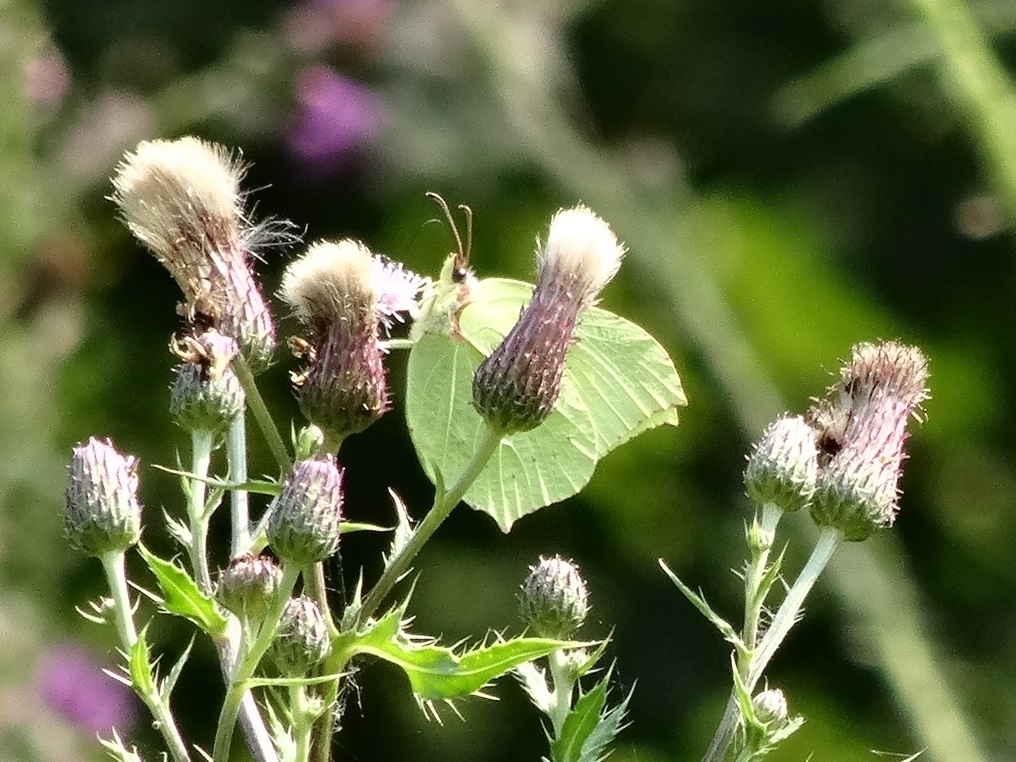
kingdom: Animalia
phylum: Arthropoda
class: Insecta
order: Lepidoptera
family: Pieridae
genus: Gonepteryx
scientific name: Gonepteryx rhamni
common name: Brimstone
